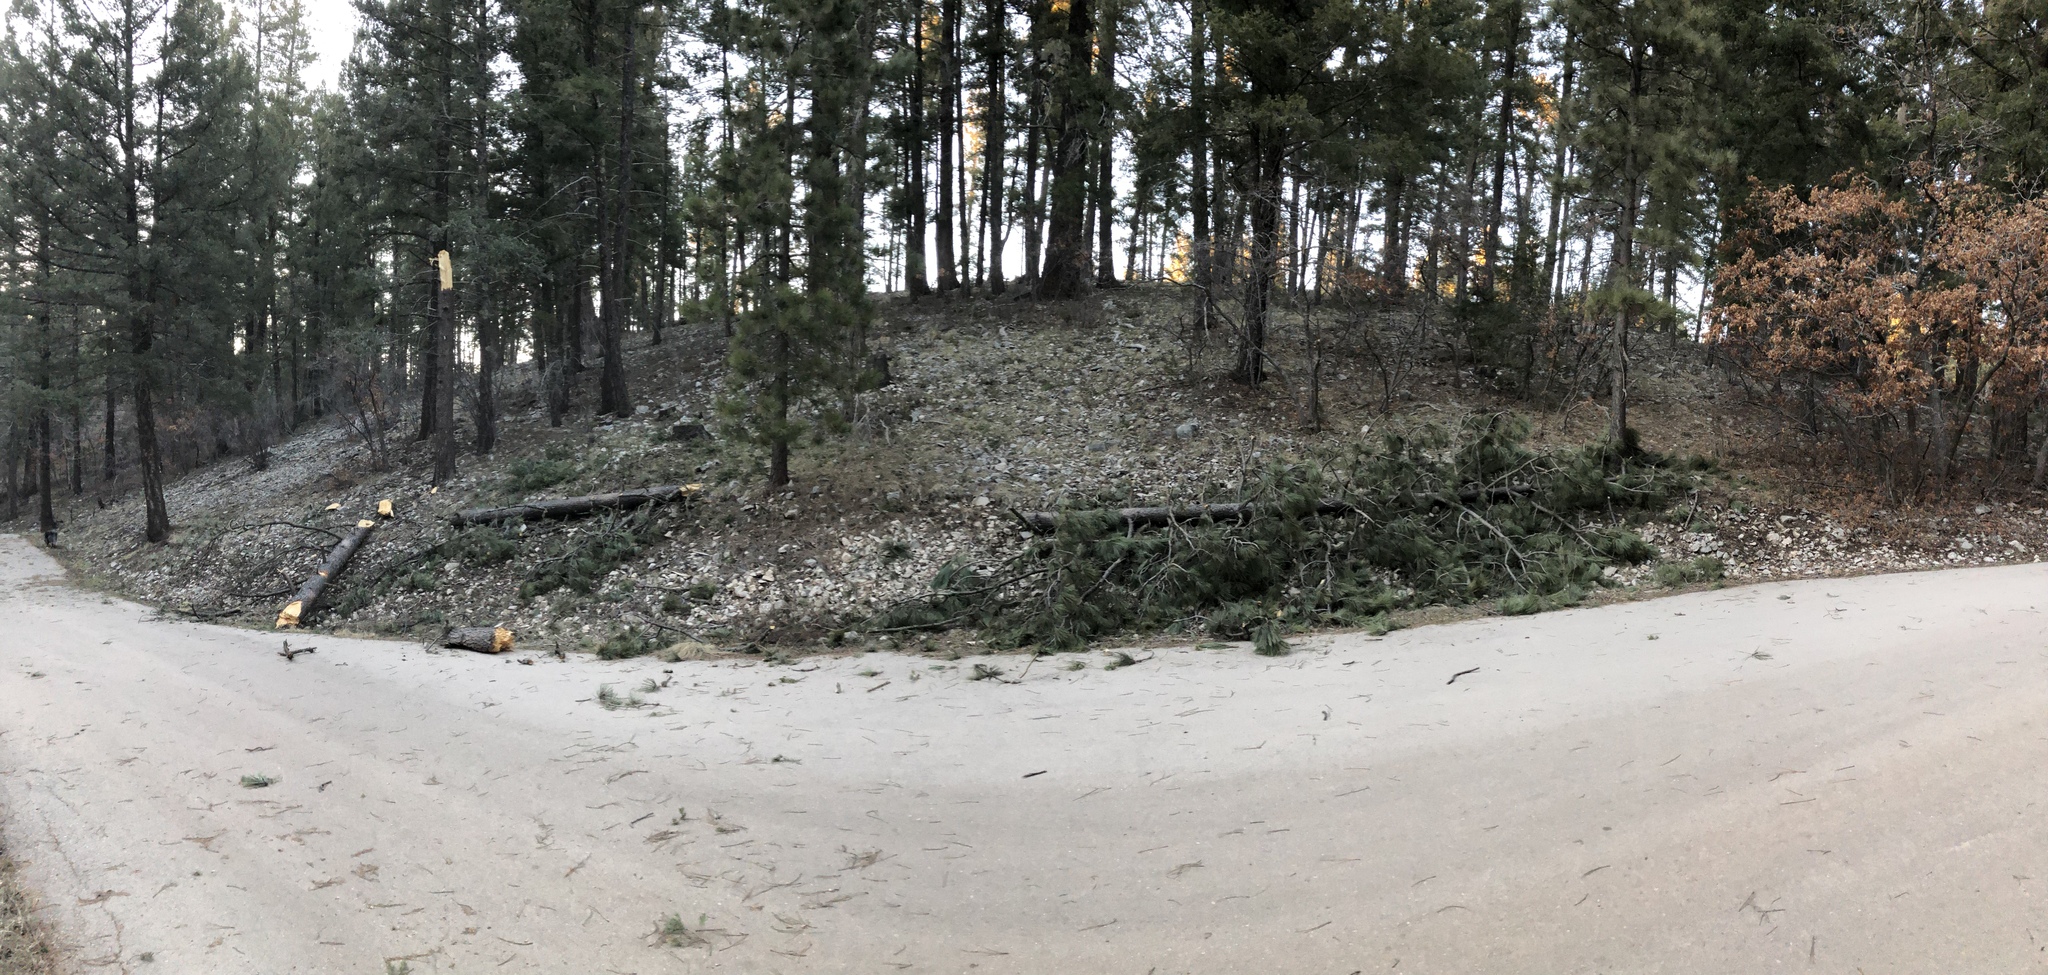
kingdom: Plantae
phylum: Tracheophyta
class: Pinopsida
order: Pinales
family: Pinaceae
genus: Pinus
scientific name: Pinus ponderosa
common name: Western yellow-pine
